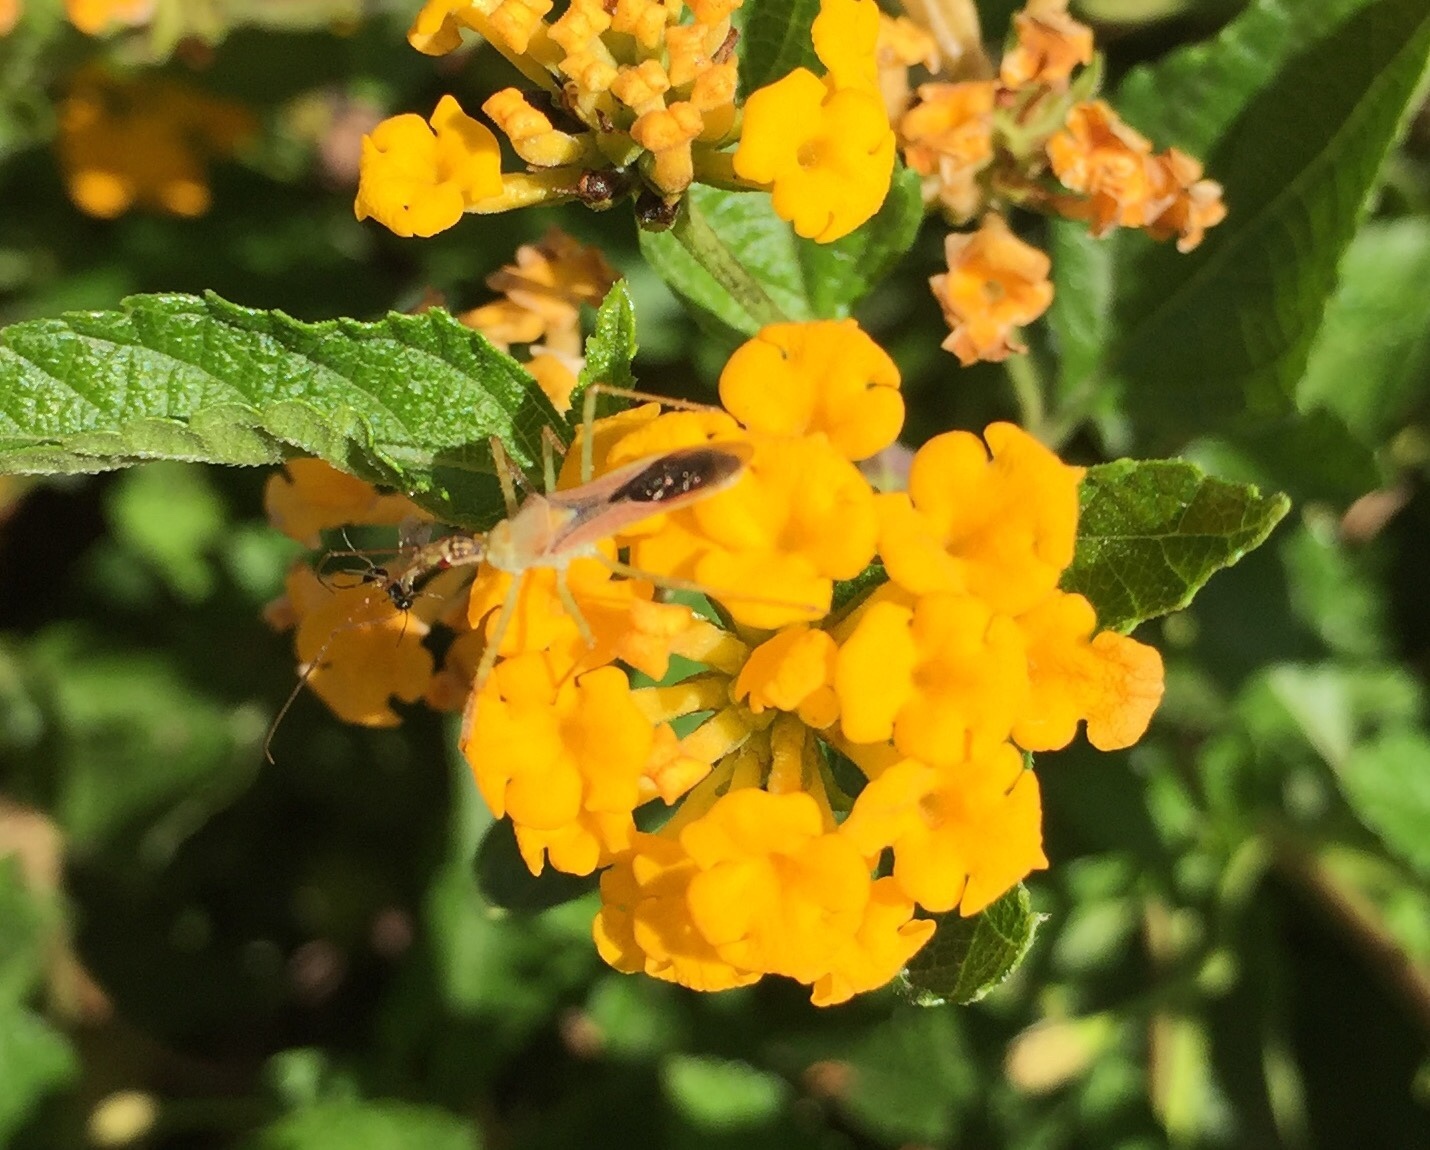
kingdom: Animalia
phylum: Arthropoda
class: Insecta
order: Hemiptera
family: Reduviidae
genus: Zelus
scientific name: Zelus renardii
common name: Assassin bug
